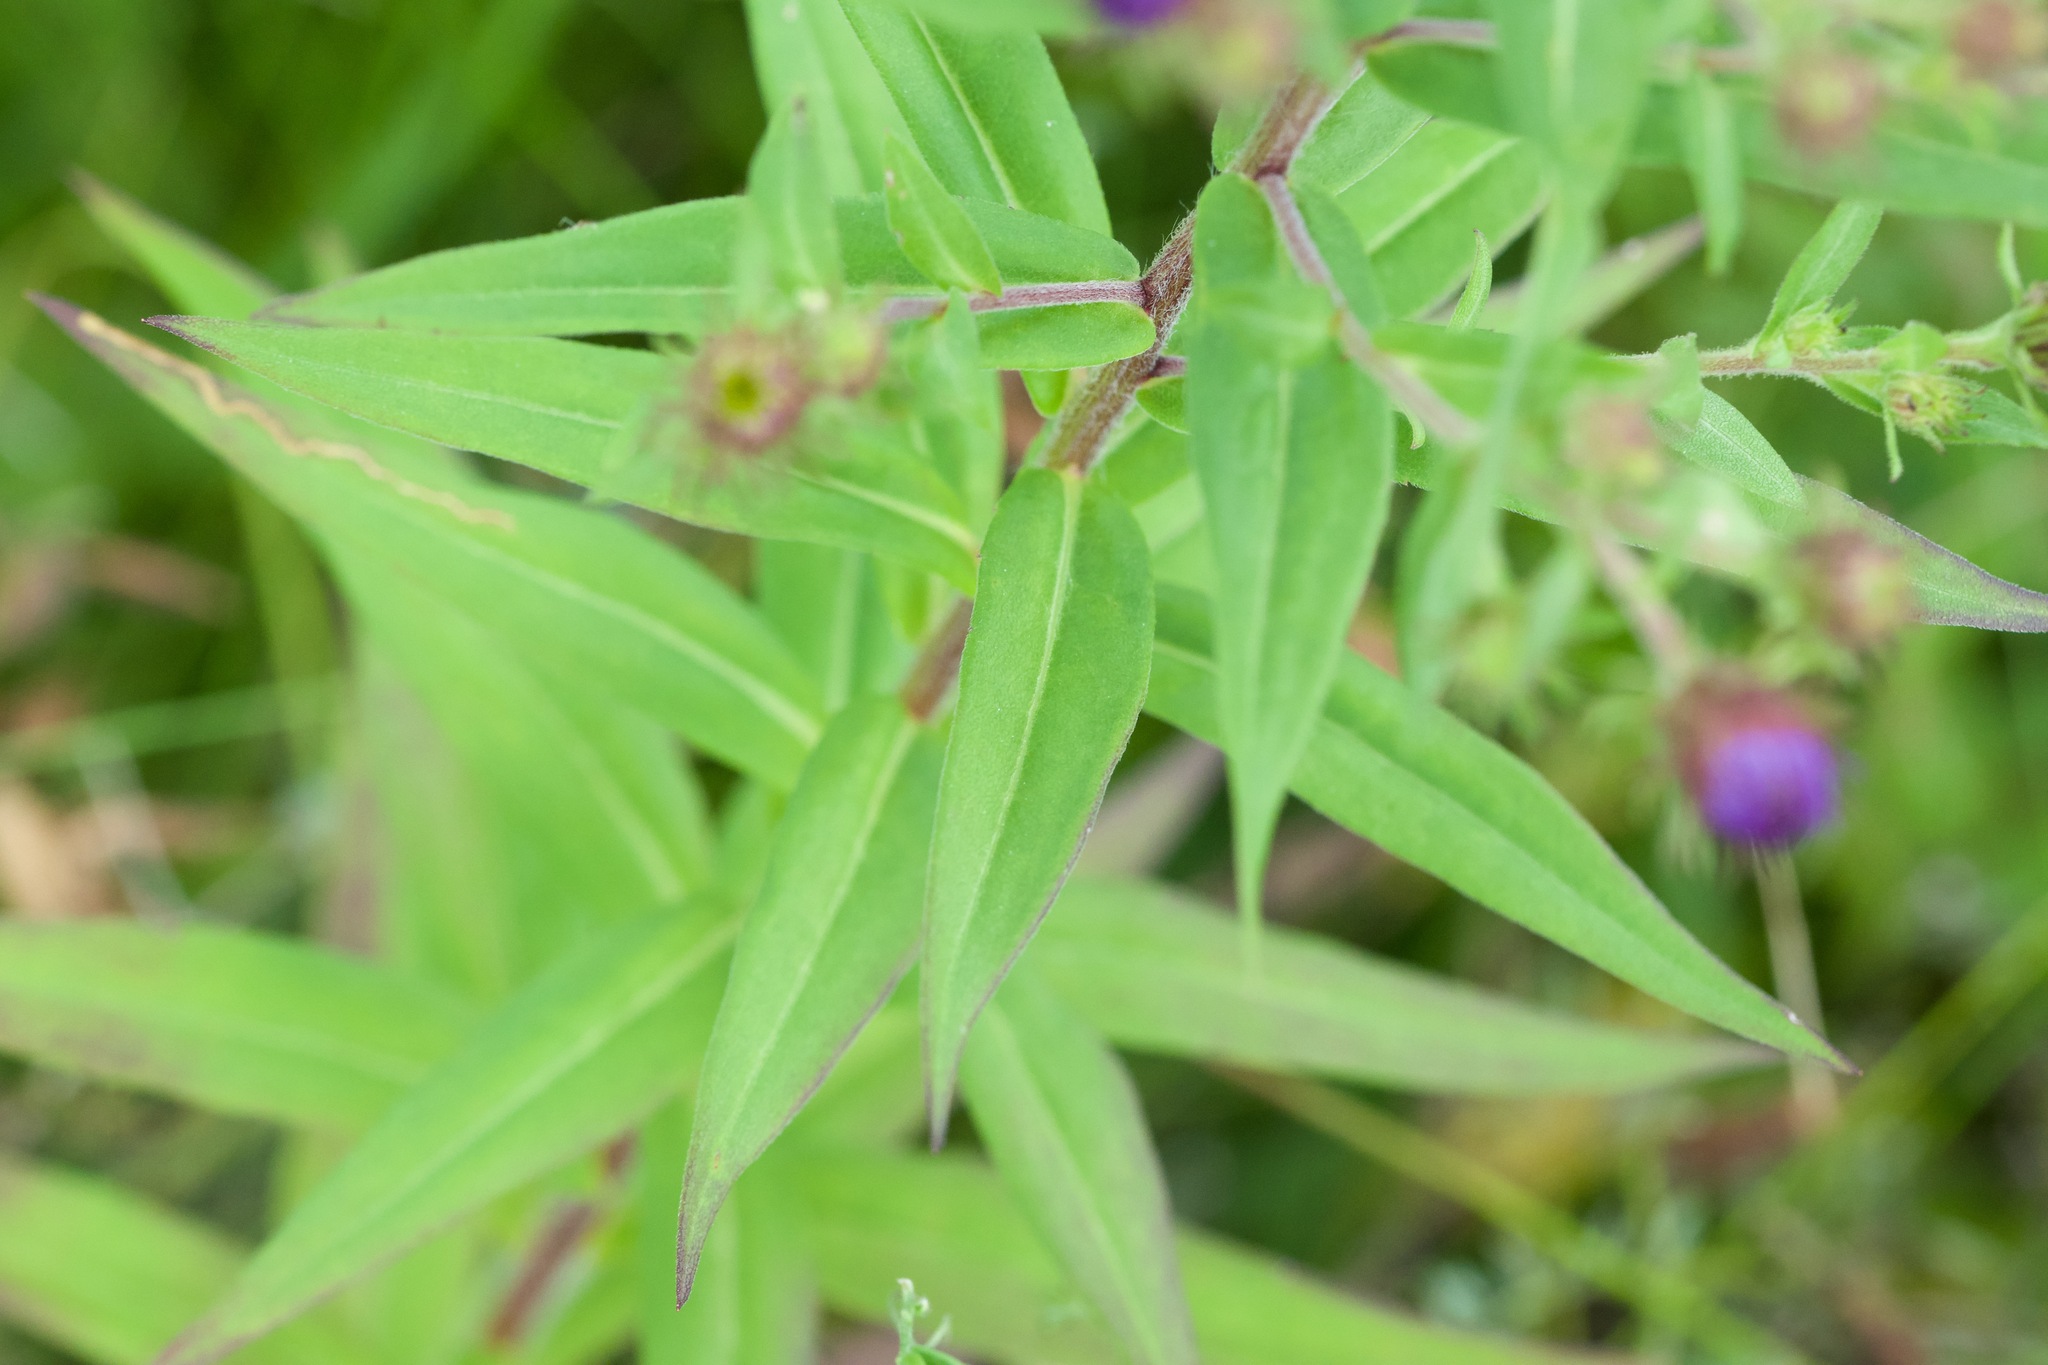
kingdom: Plantae
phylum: Tracheophyta
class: Magnoliopsida
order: Asterales
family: Asteraceae
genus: Canadanthus
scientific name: Canadanthus modestus
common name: Great northern aster
